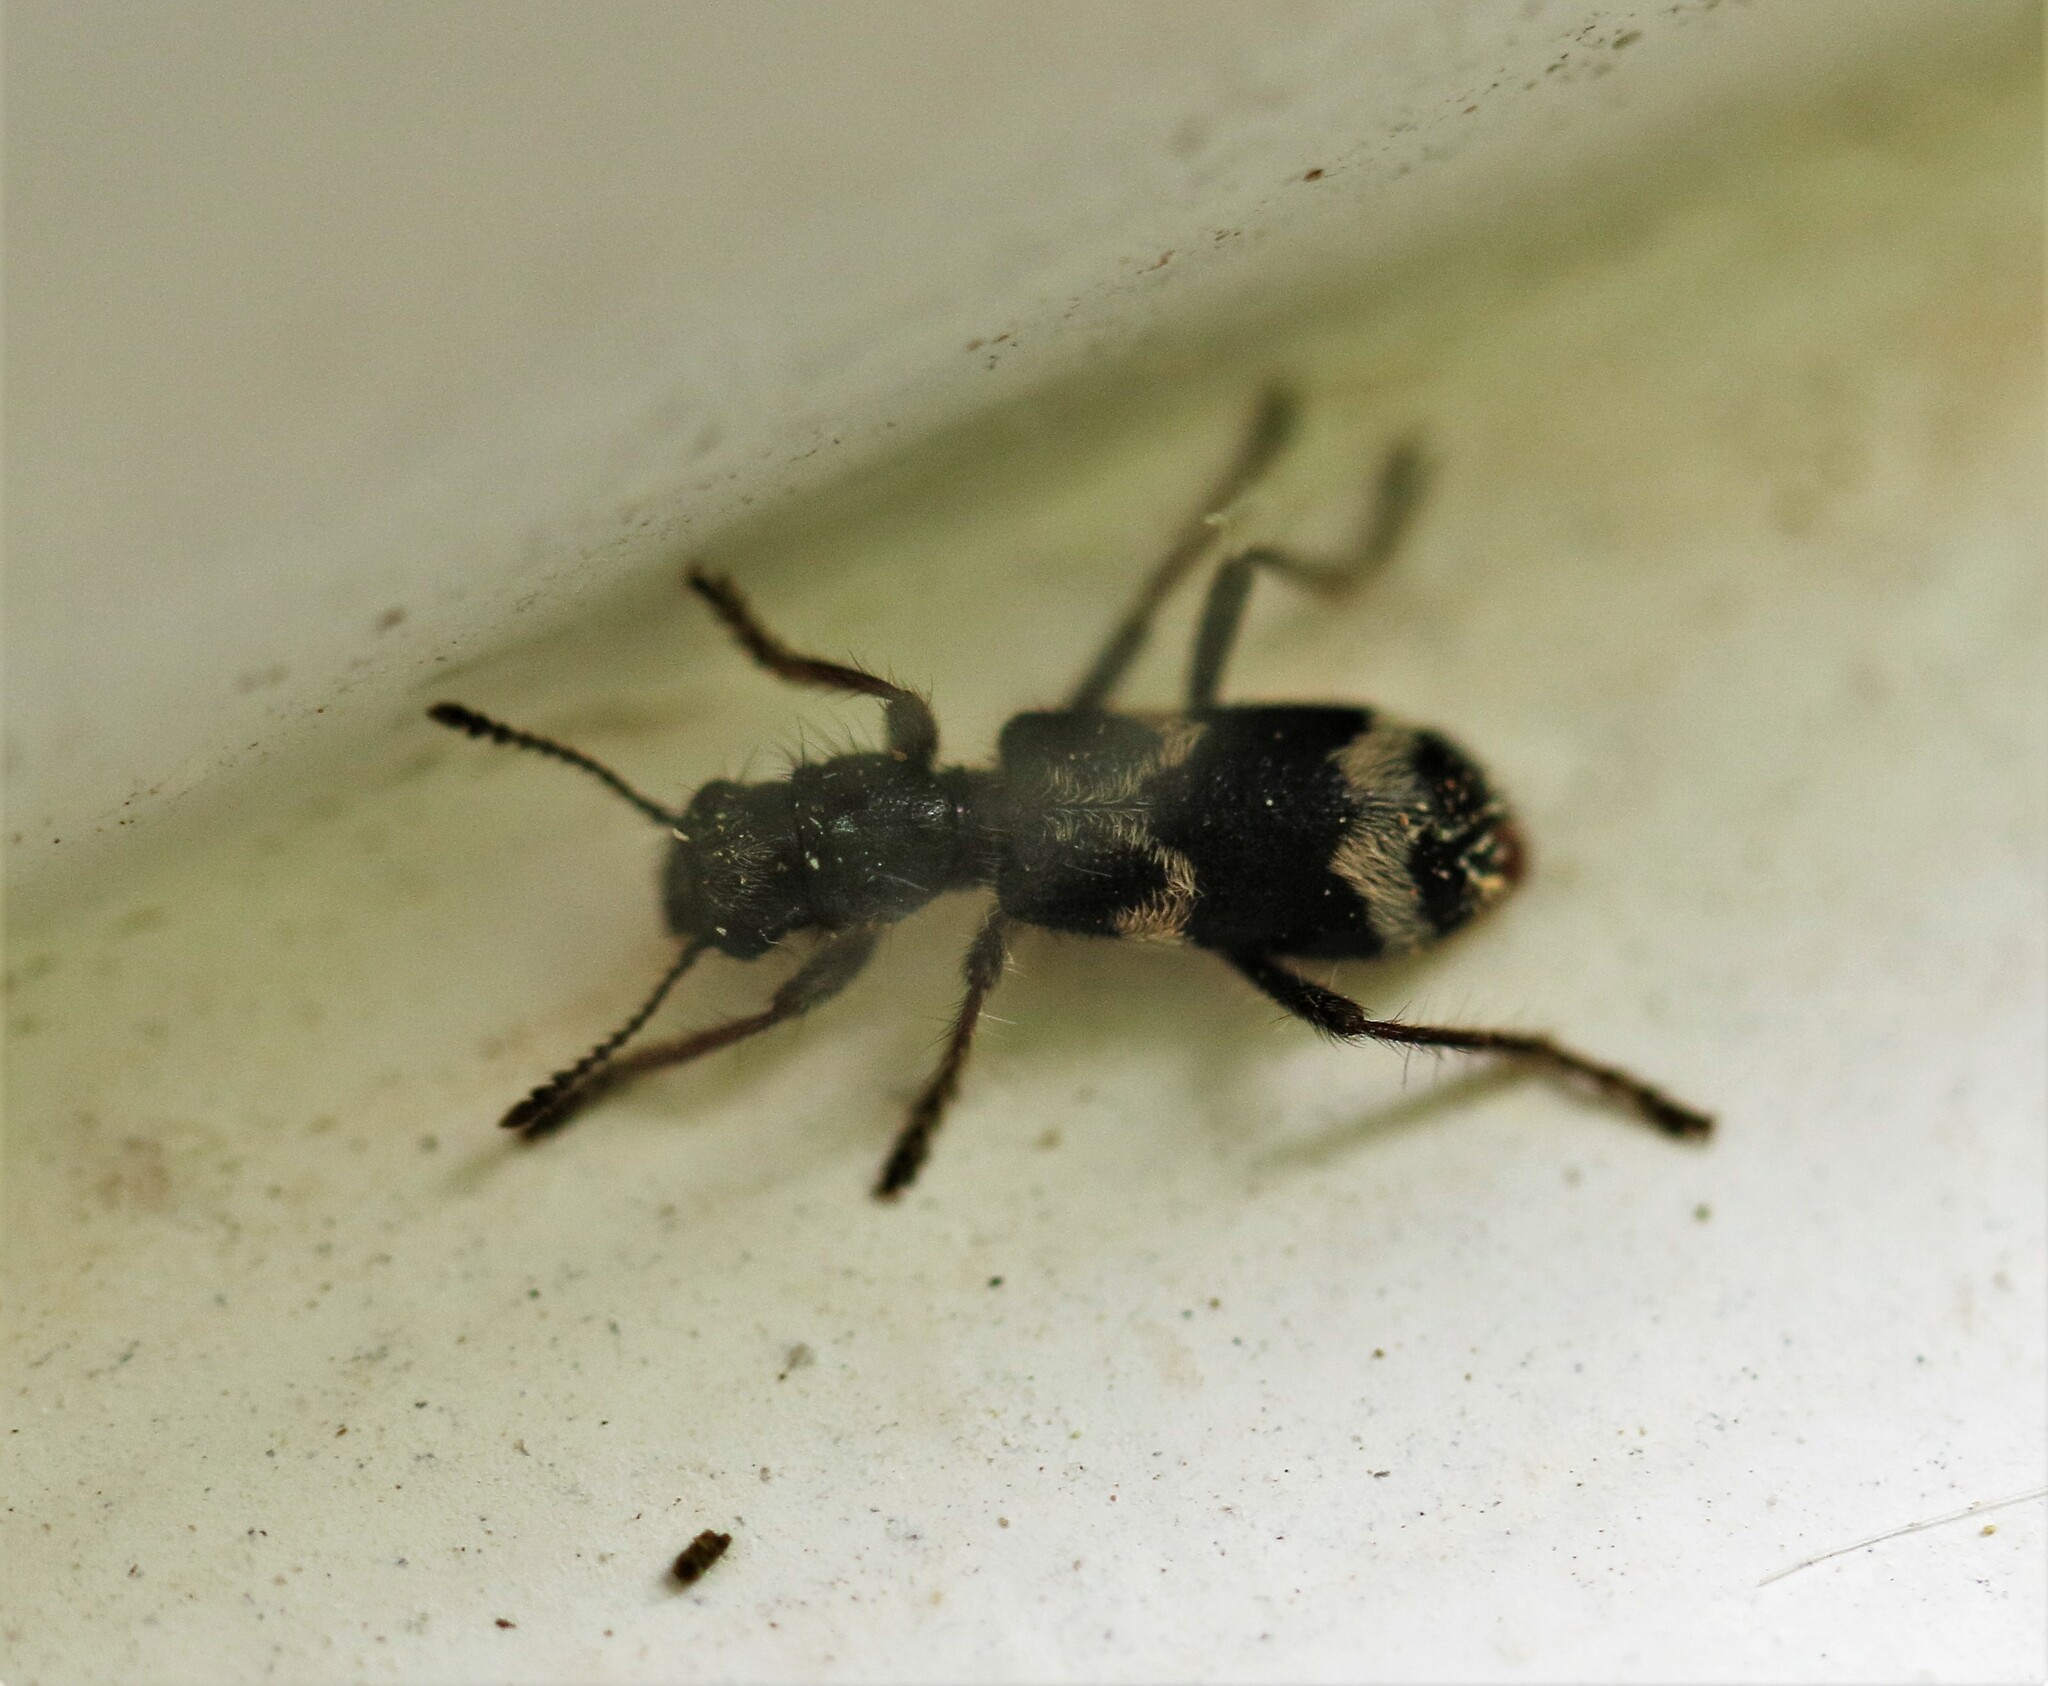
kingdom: Animalia
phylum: Arthropoda
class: Insecta
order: Coleoptera
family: Cleridae
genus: Thanasimus
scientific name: Thanasimus undatulus
